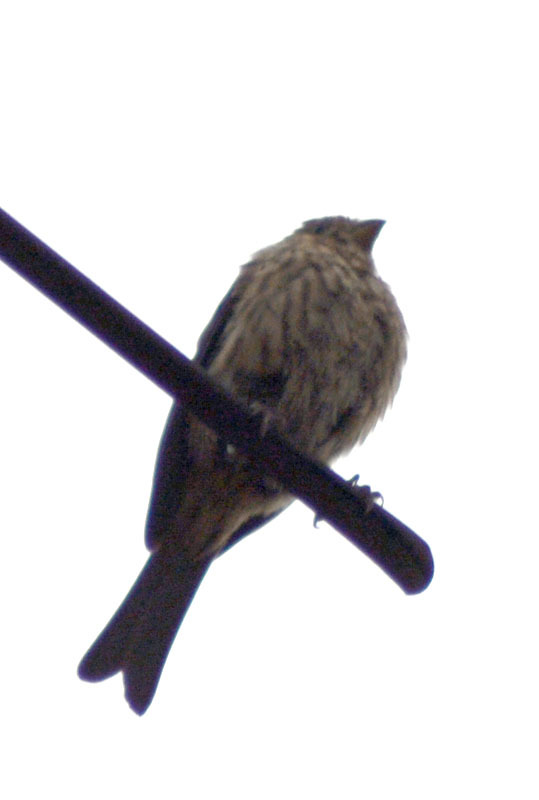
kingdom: Animalia
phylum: Chordata
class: Aves
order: Passeriformes
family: Fringillidae
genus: Haemorhous
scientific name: Haemorhous mexicanus
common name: House finch
